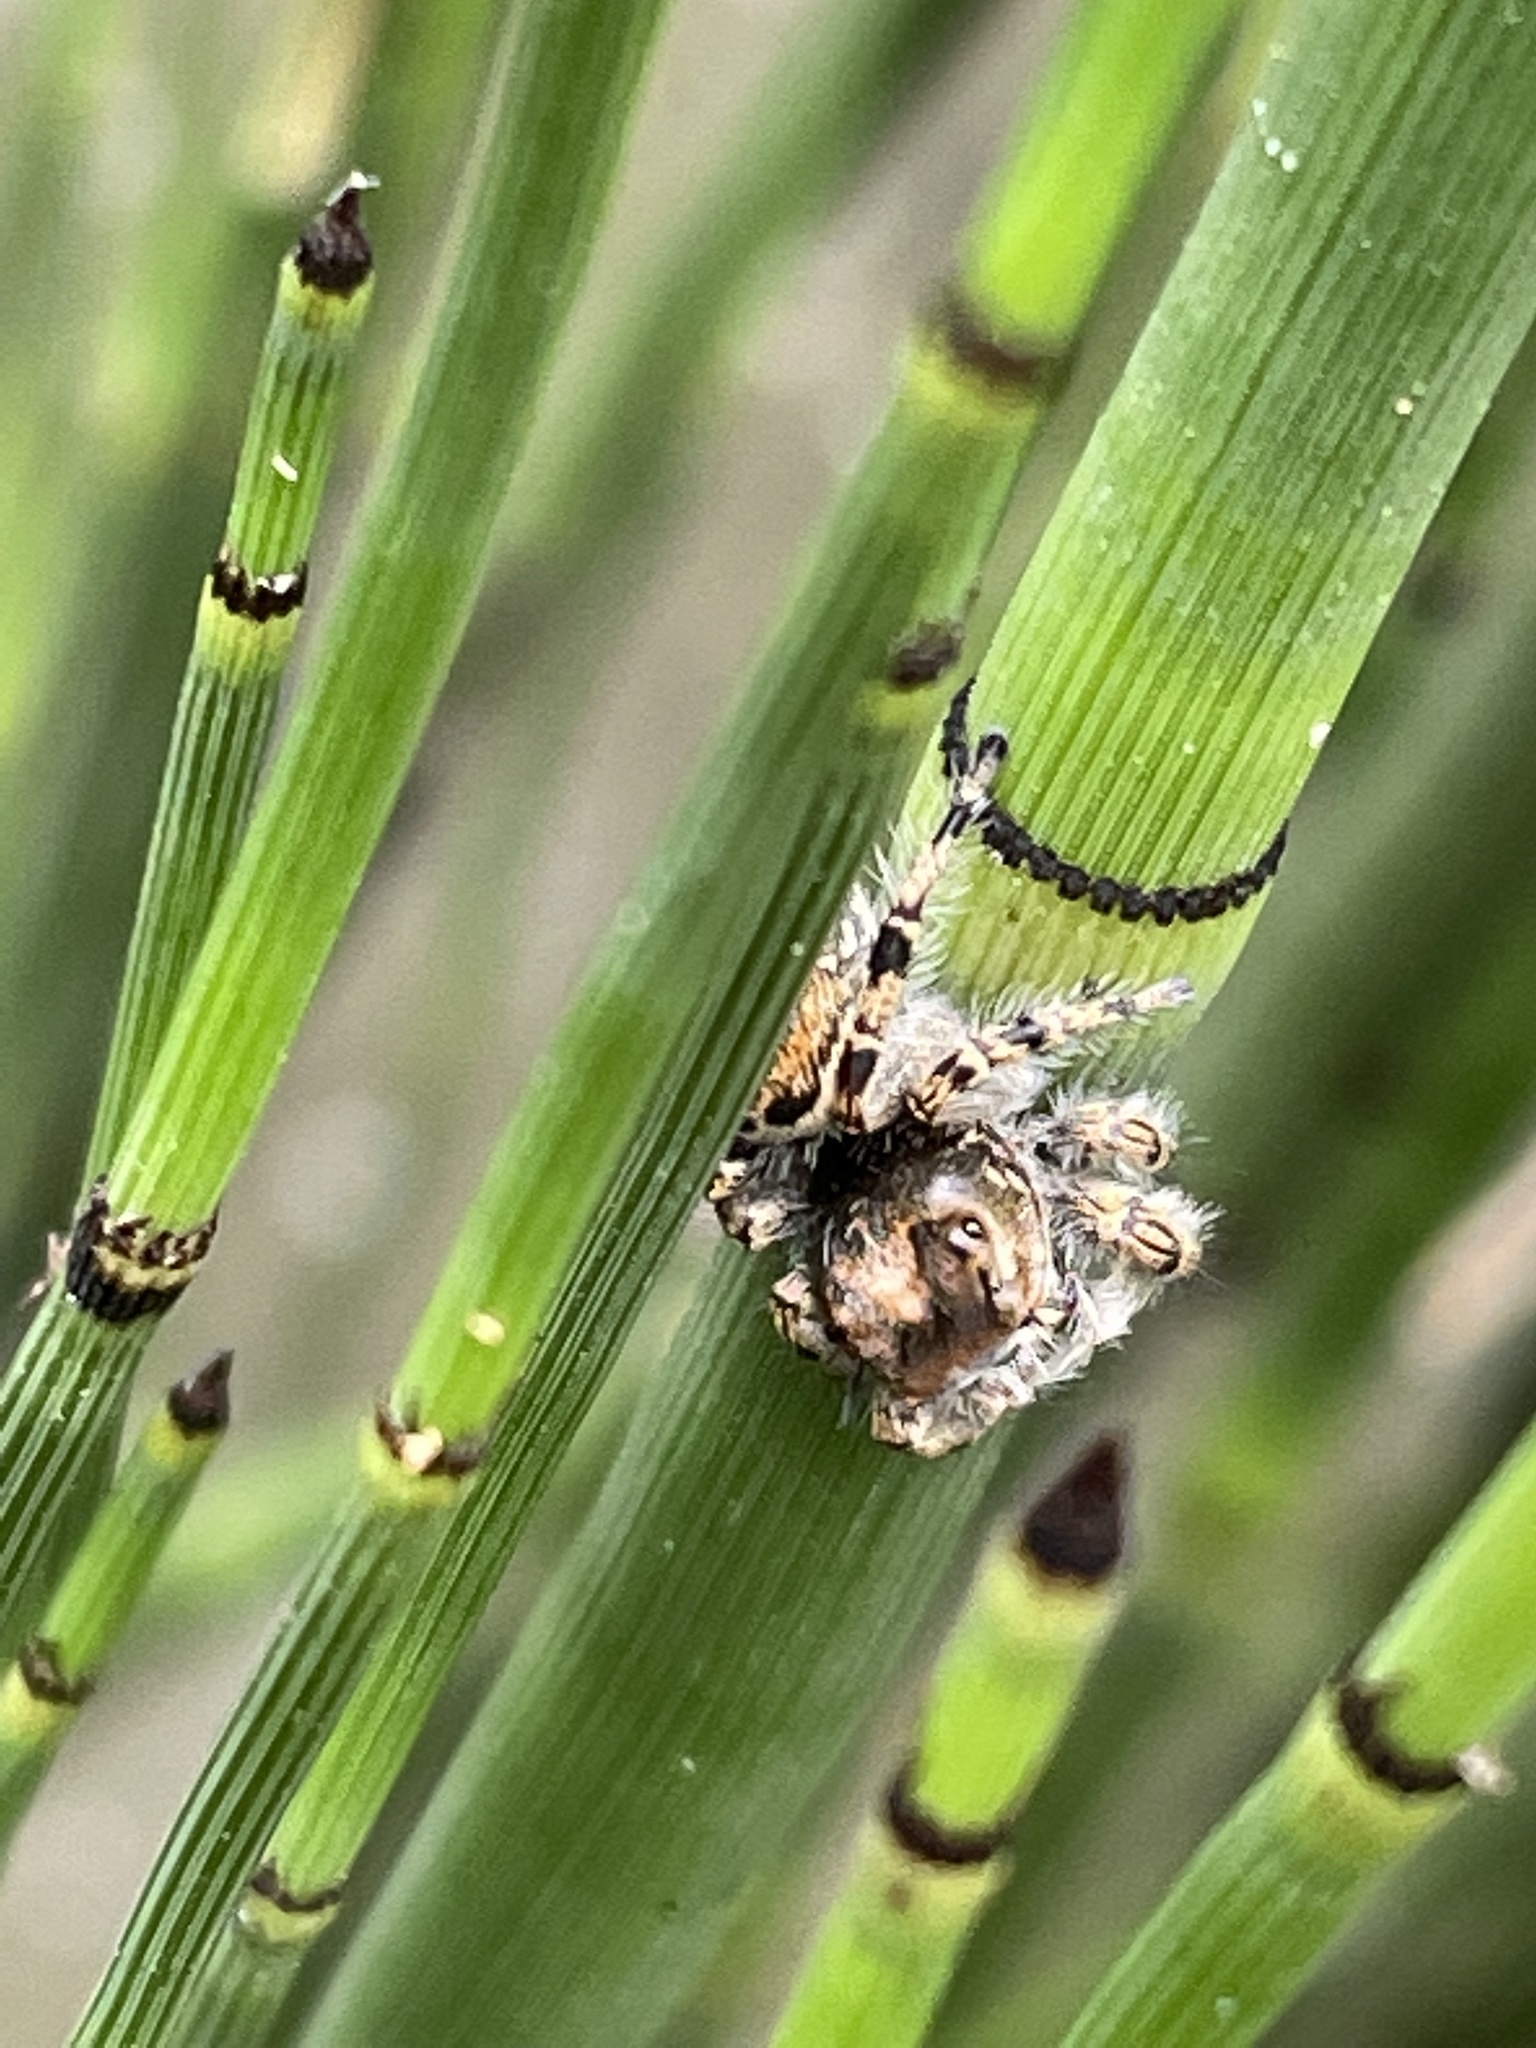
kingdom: Animalia
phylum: Arthropoda
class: Arachnida
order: Araneae
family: Salticidae
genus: Phidippus
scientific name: Phidippus putnami
